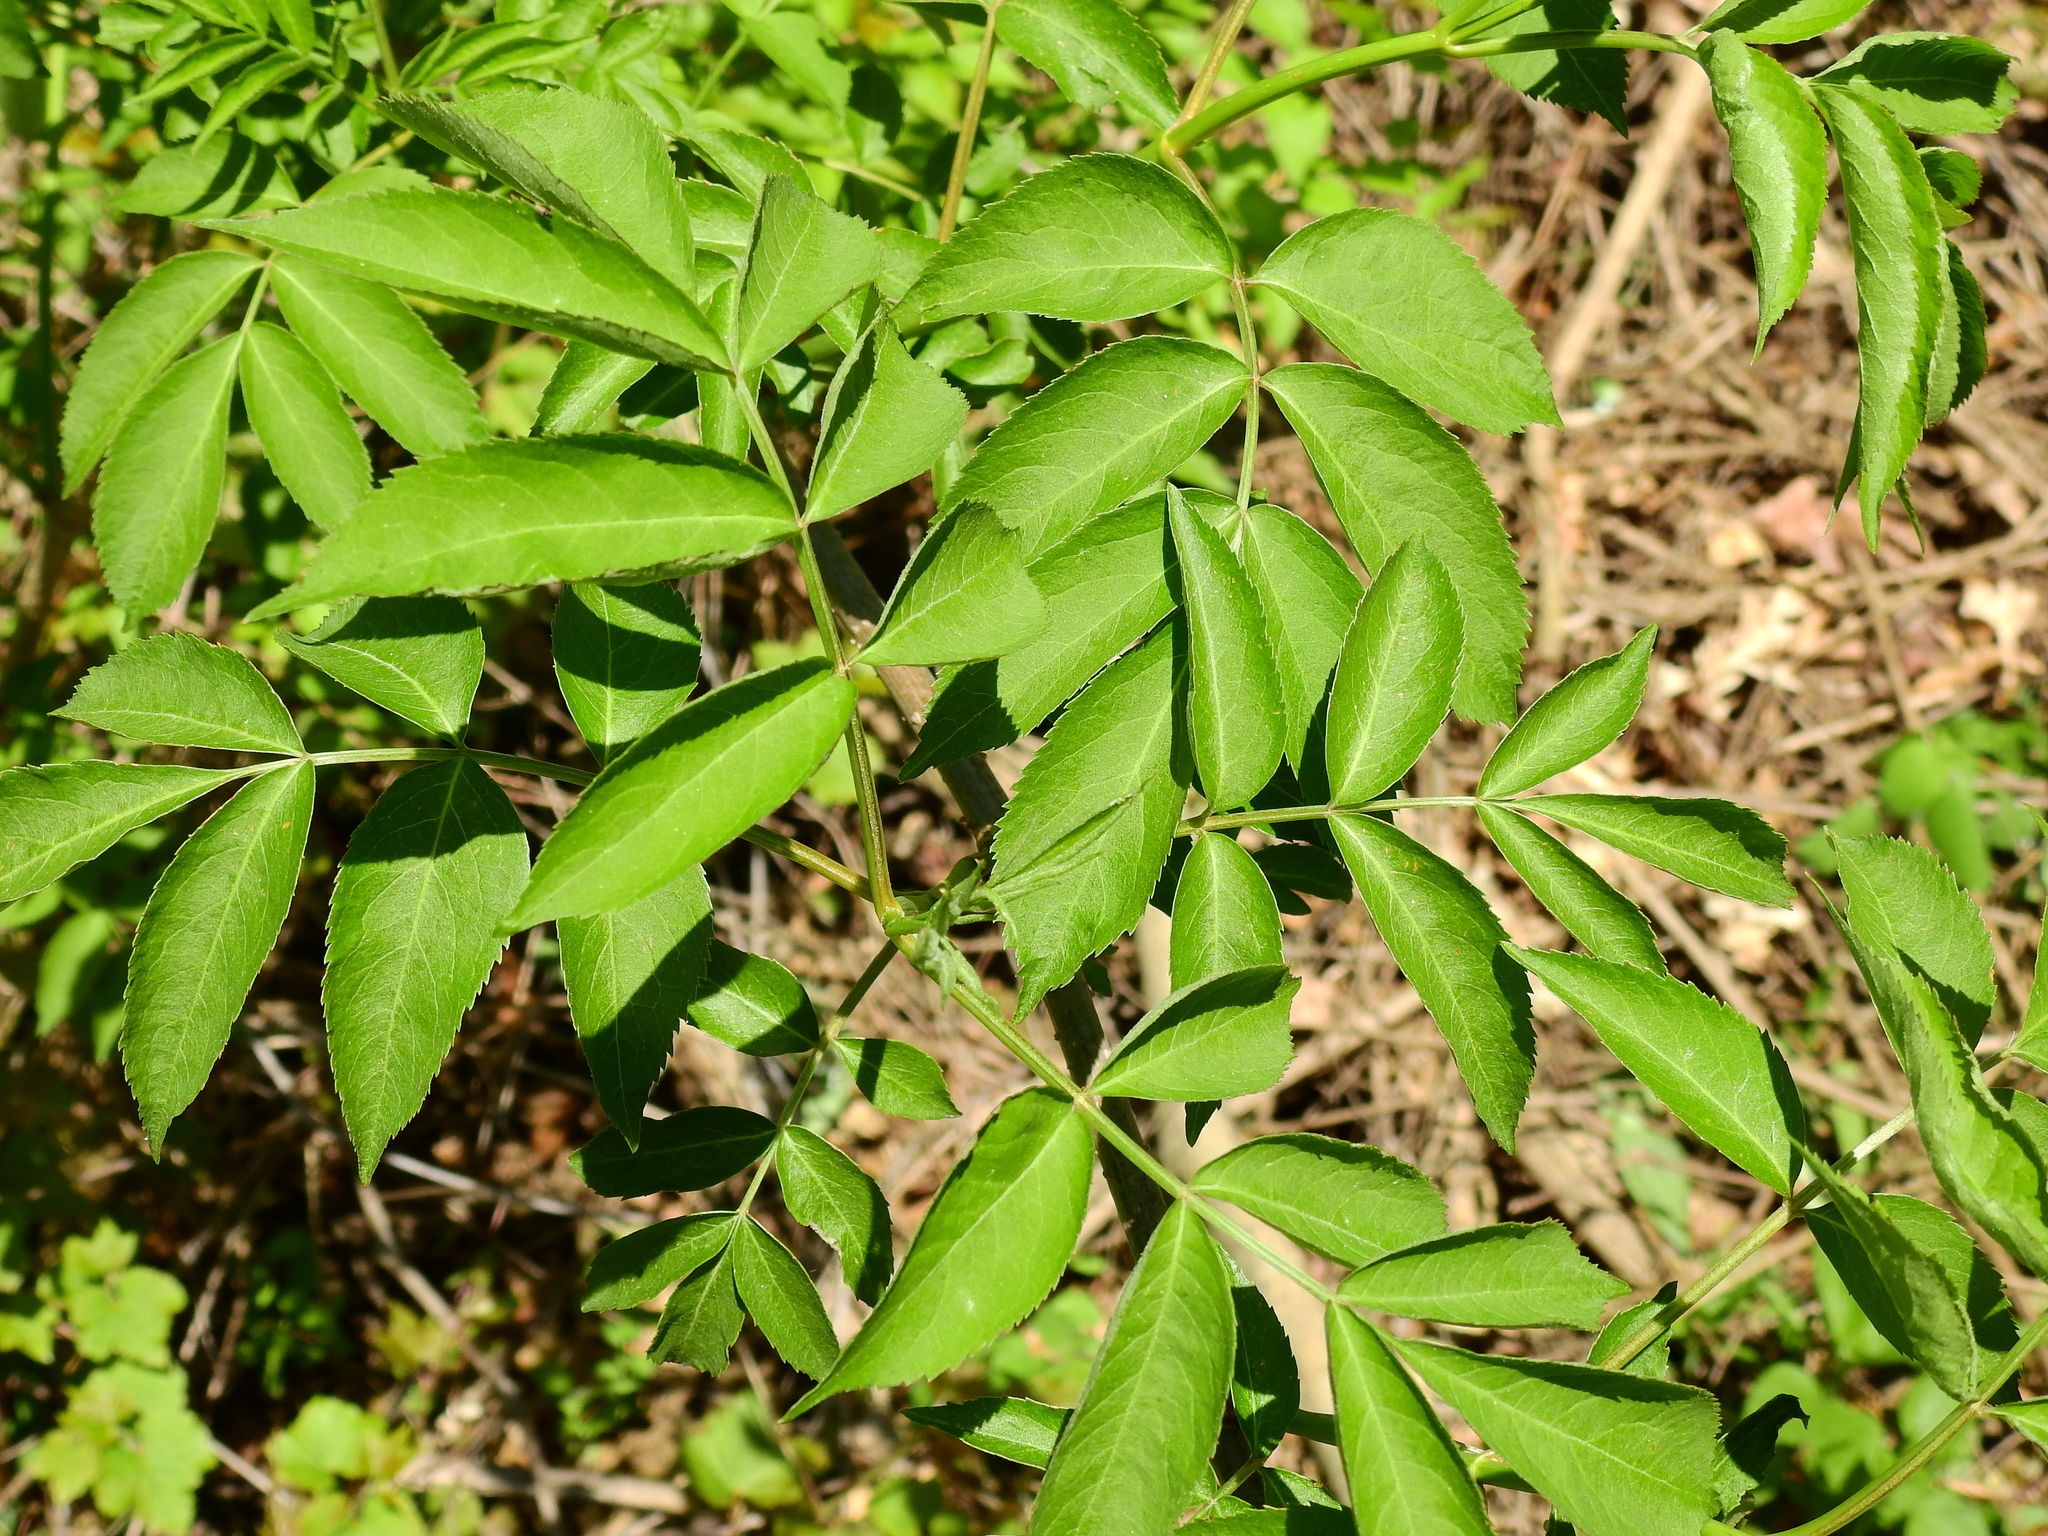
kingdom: Plantae
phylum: Tracheophyta
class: Magnoliopsida
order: Dipsacales
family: Viburnaceae
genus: Sambucus
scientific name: Sambucus canadensis
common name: American elder
